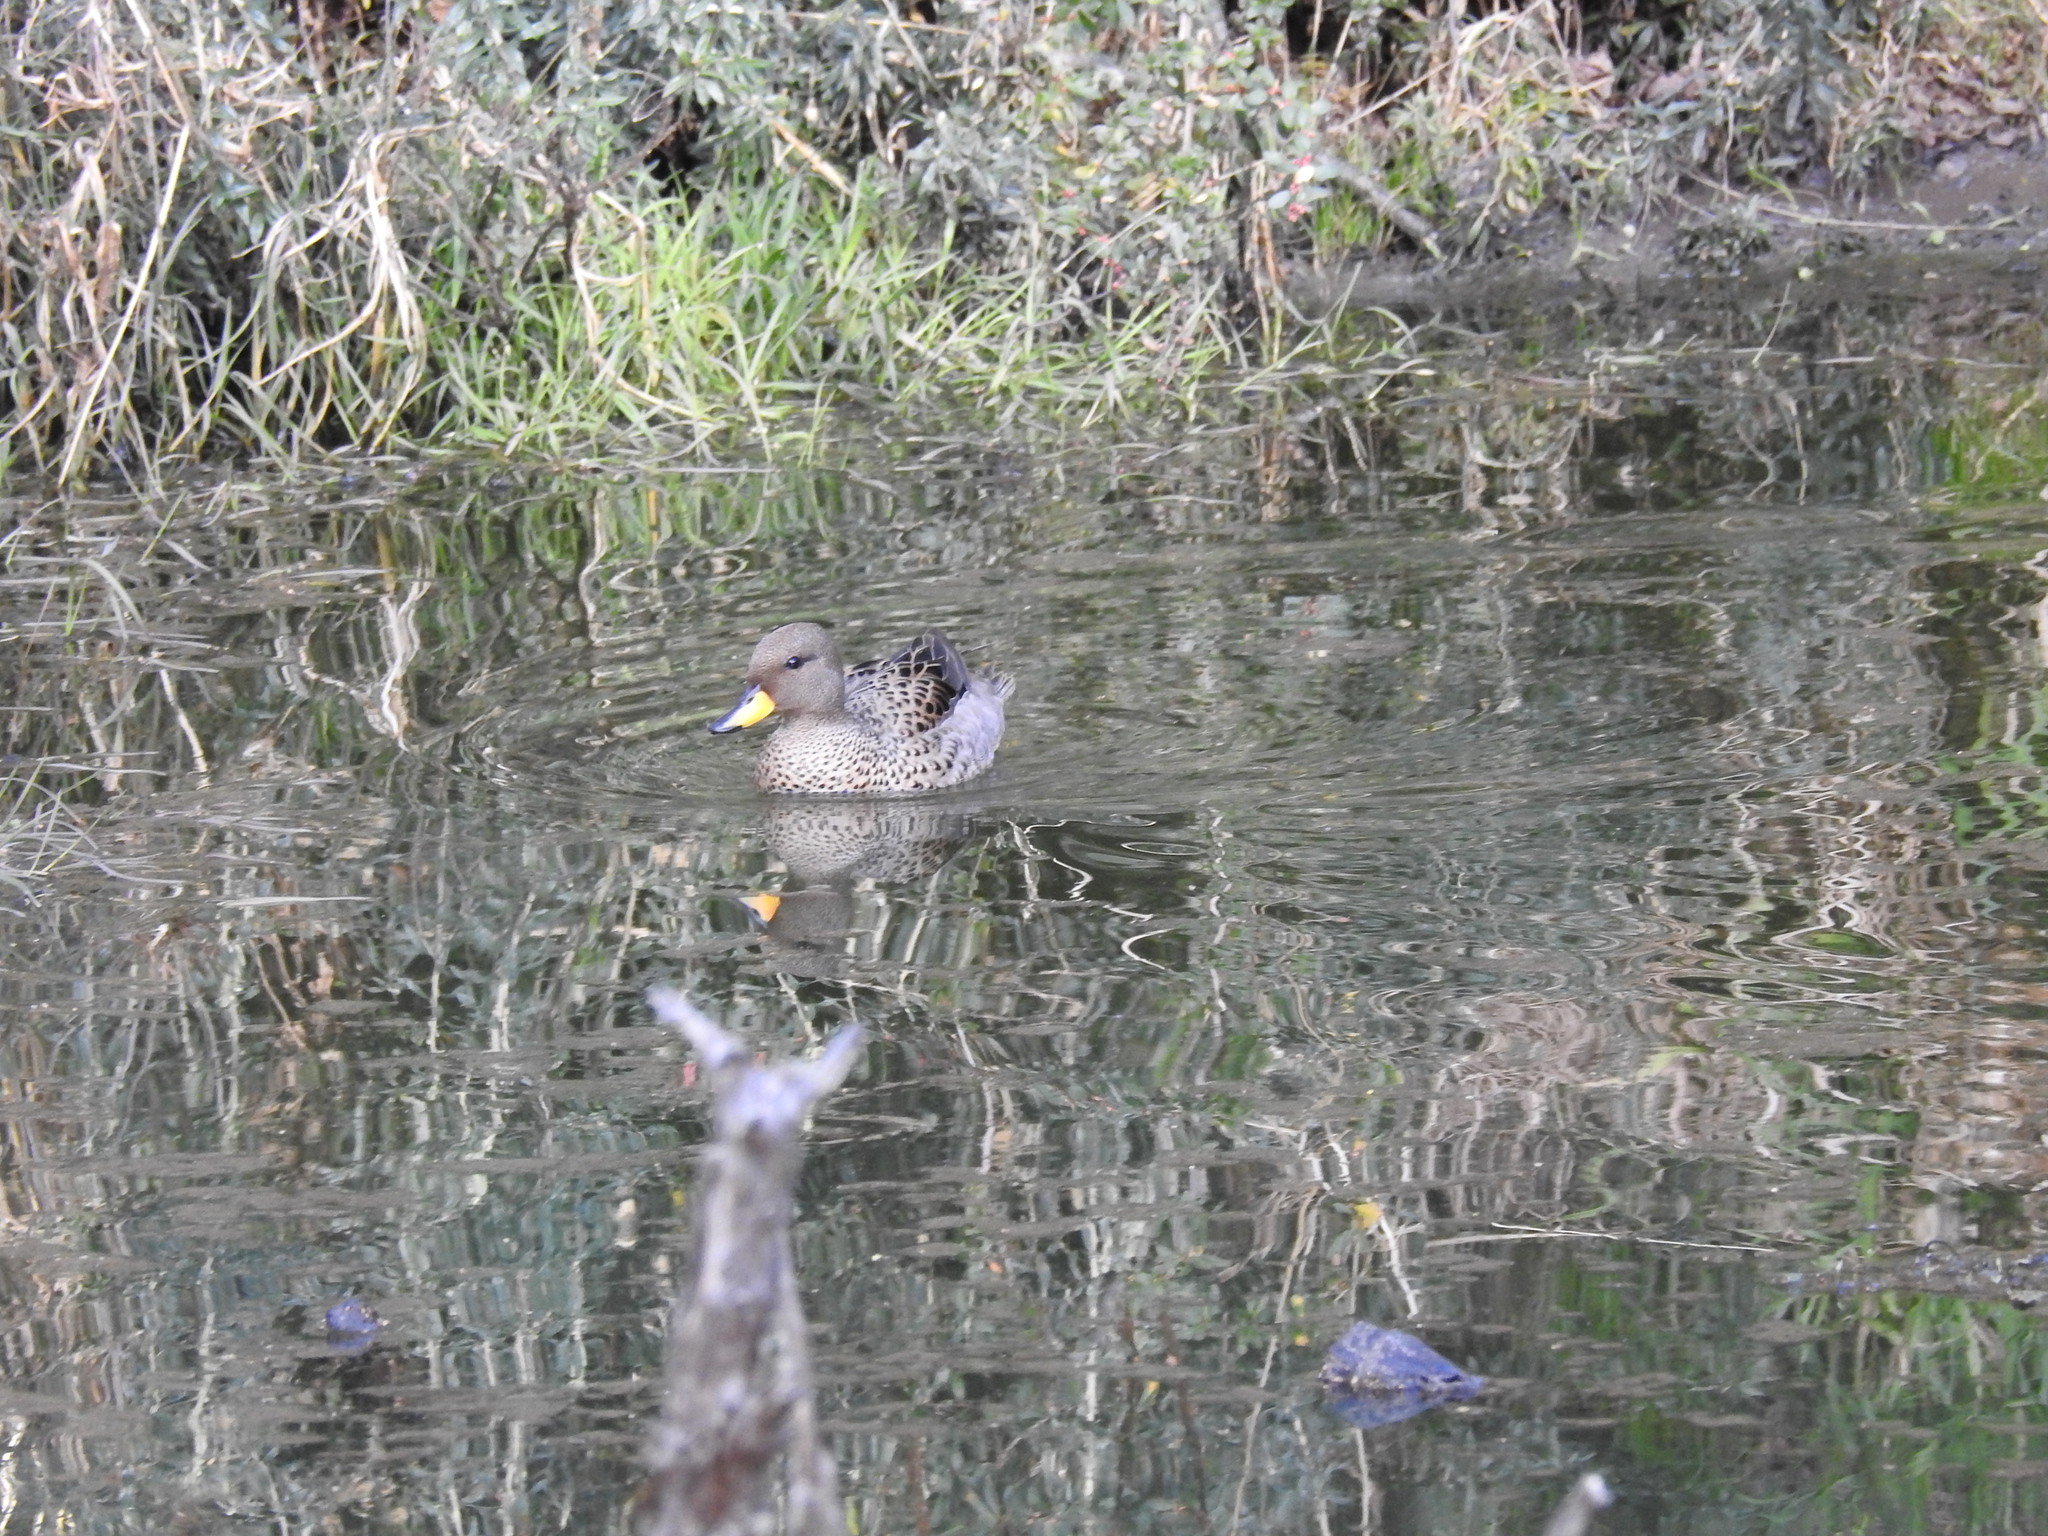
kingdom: Animalia
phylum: Chordata
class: Aves
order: Anseriformes
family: Anatidae
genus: Anas
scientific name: Anas flavirostris
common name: Yellow-billed teal
